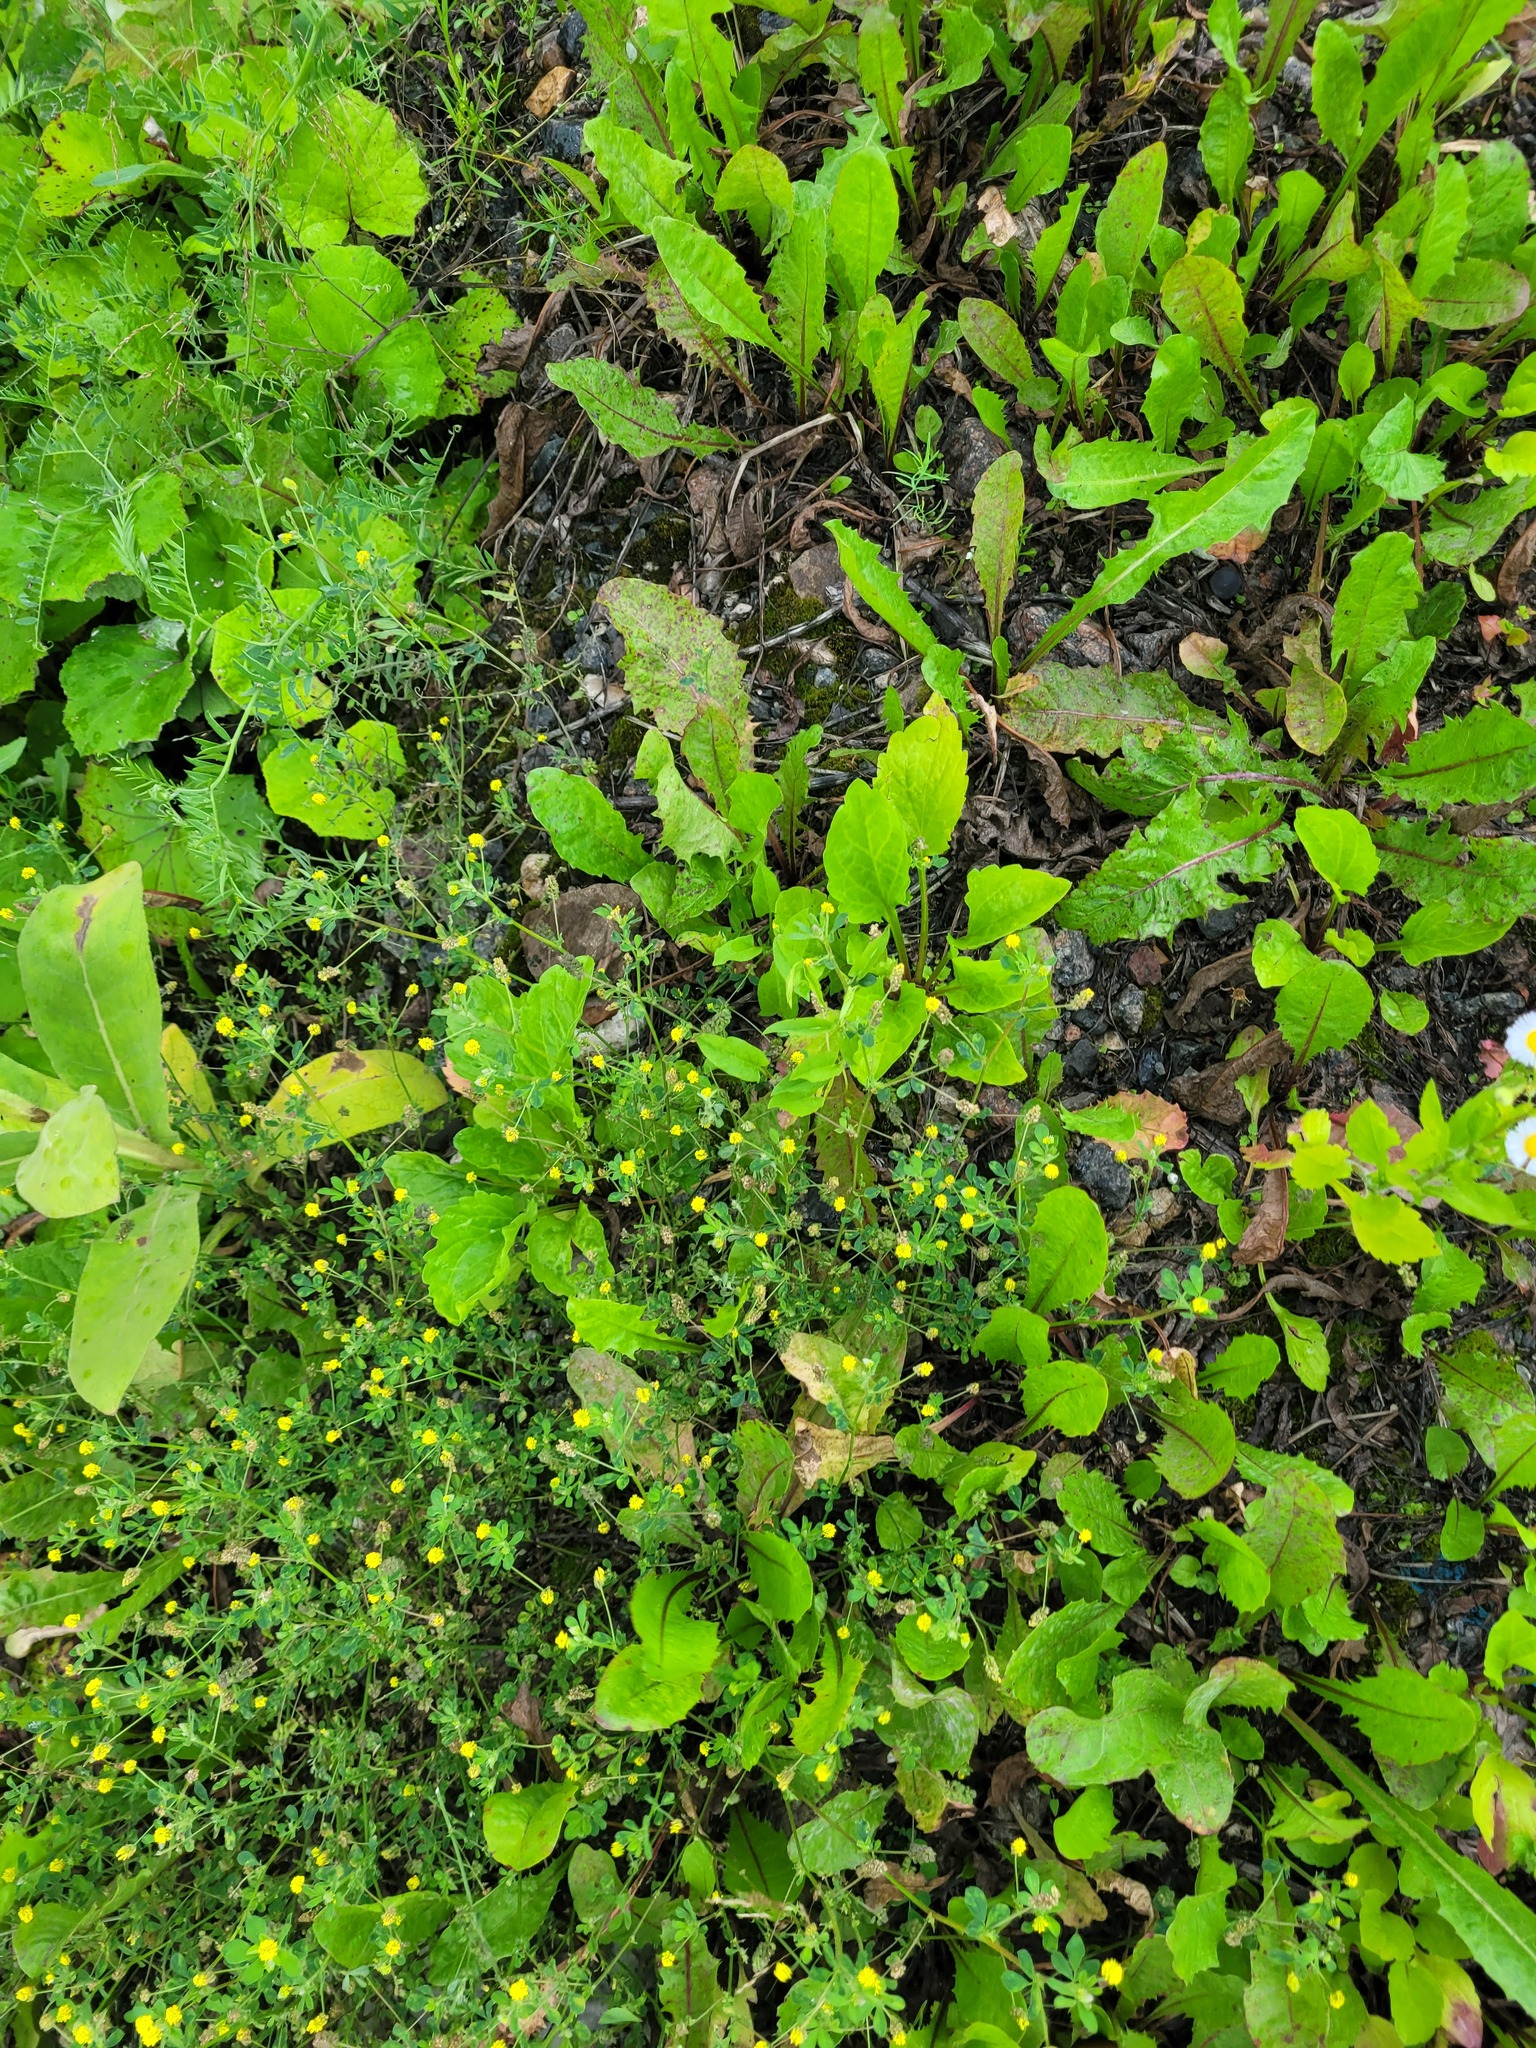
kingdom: Plantae
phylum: Tracheophyta
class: Magnoliopsida
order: Fabales
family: Fabaceae
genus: Medicago
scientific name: Medicago lupulina
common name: Black medick
